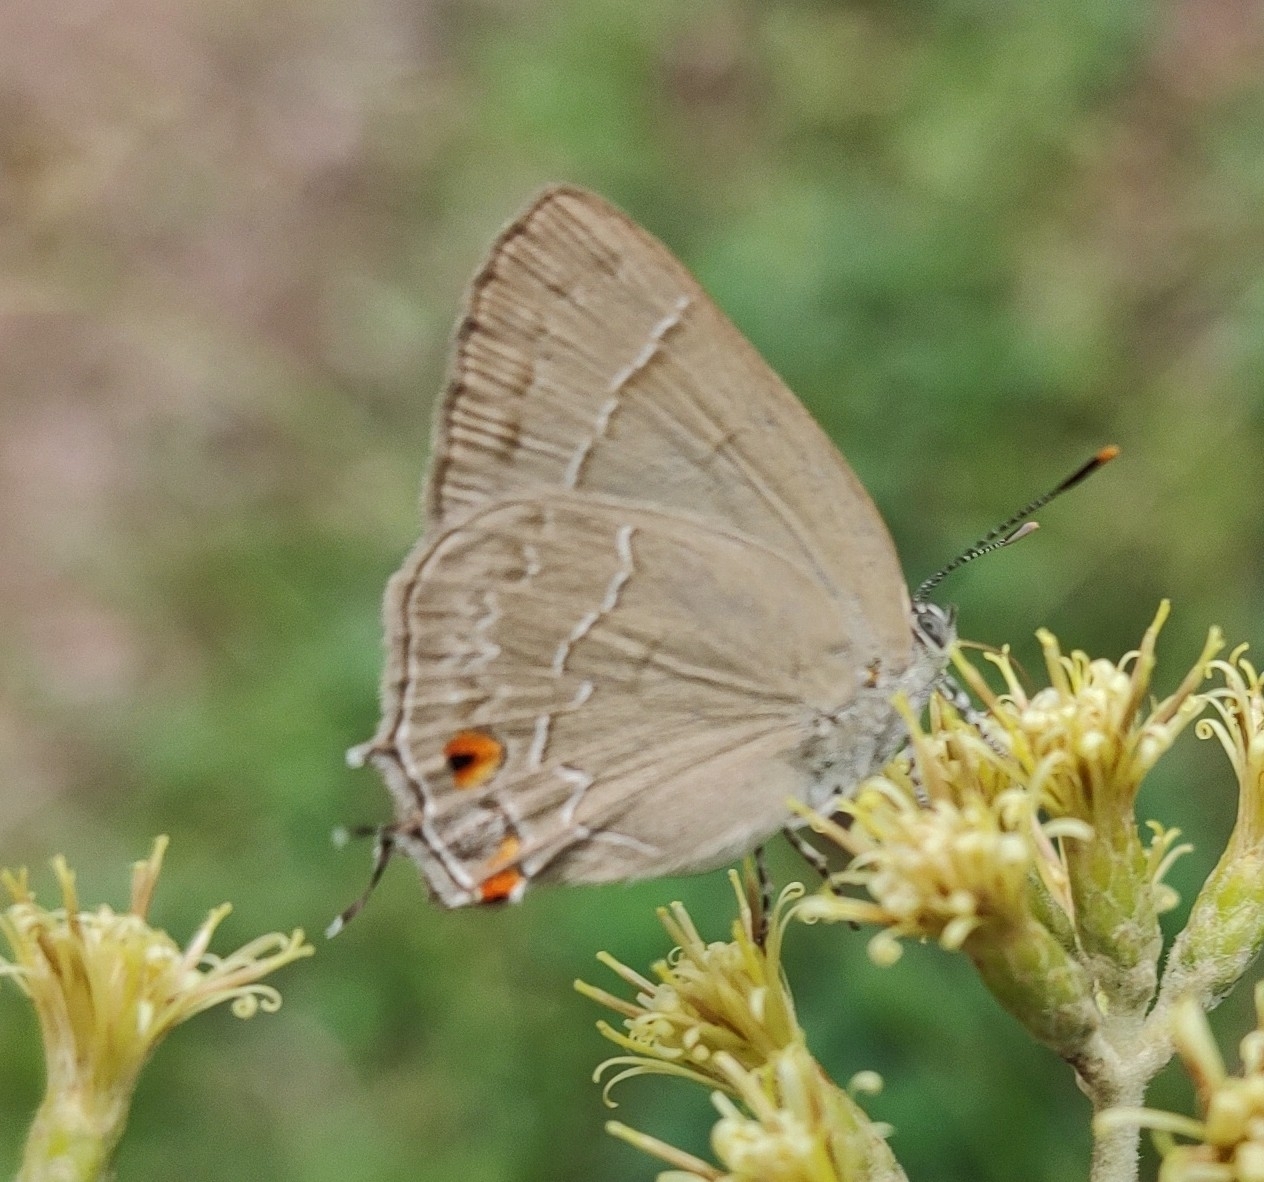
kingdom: Animalia
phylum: Arthropoda
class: Insecta
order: Lepidoptera
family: Lycaenidae
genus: Contrafacia
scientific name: Contrafacia catharina
